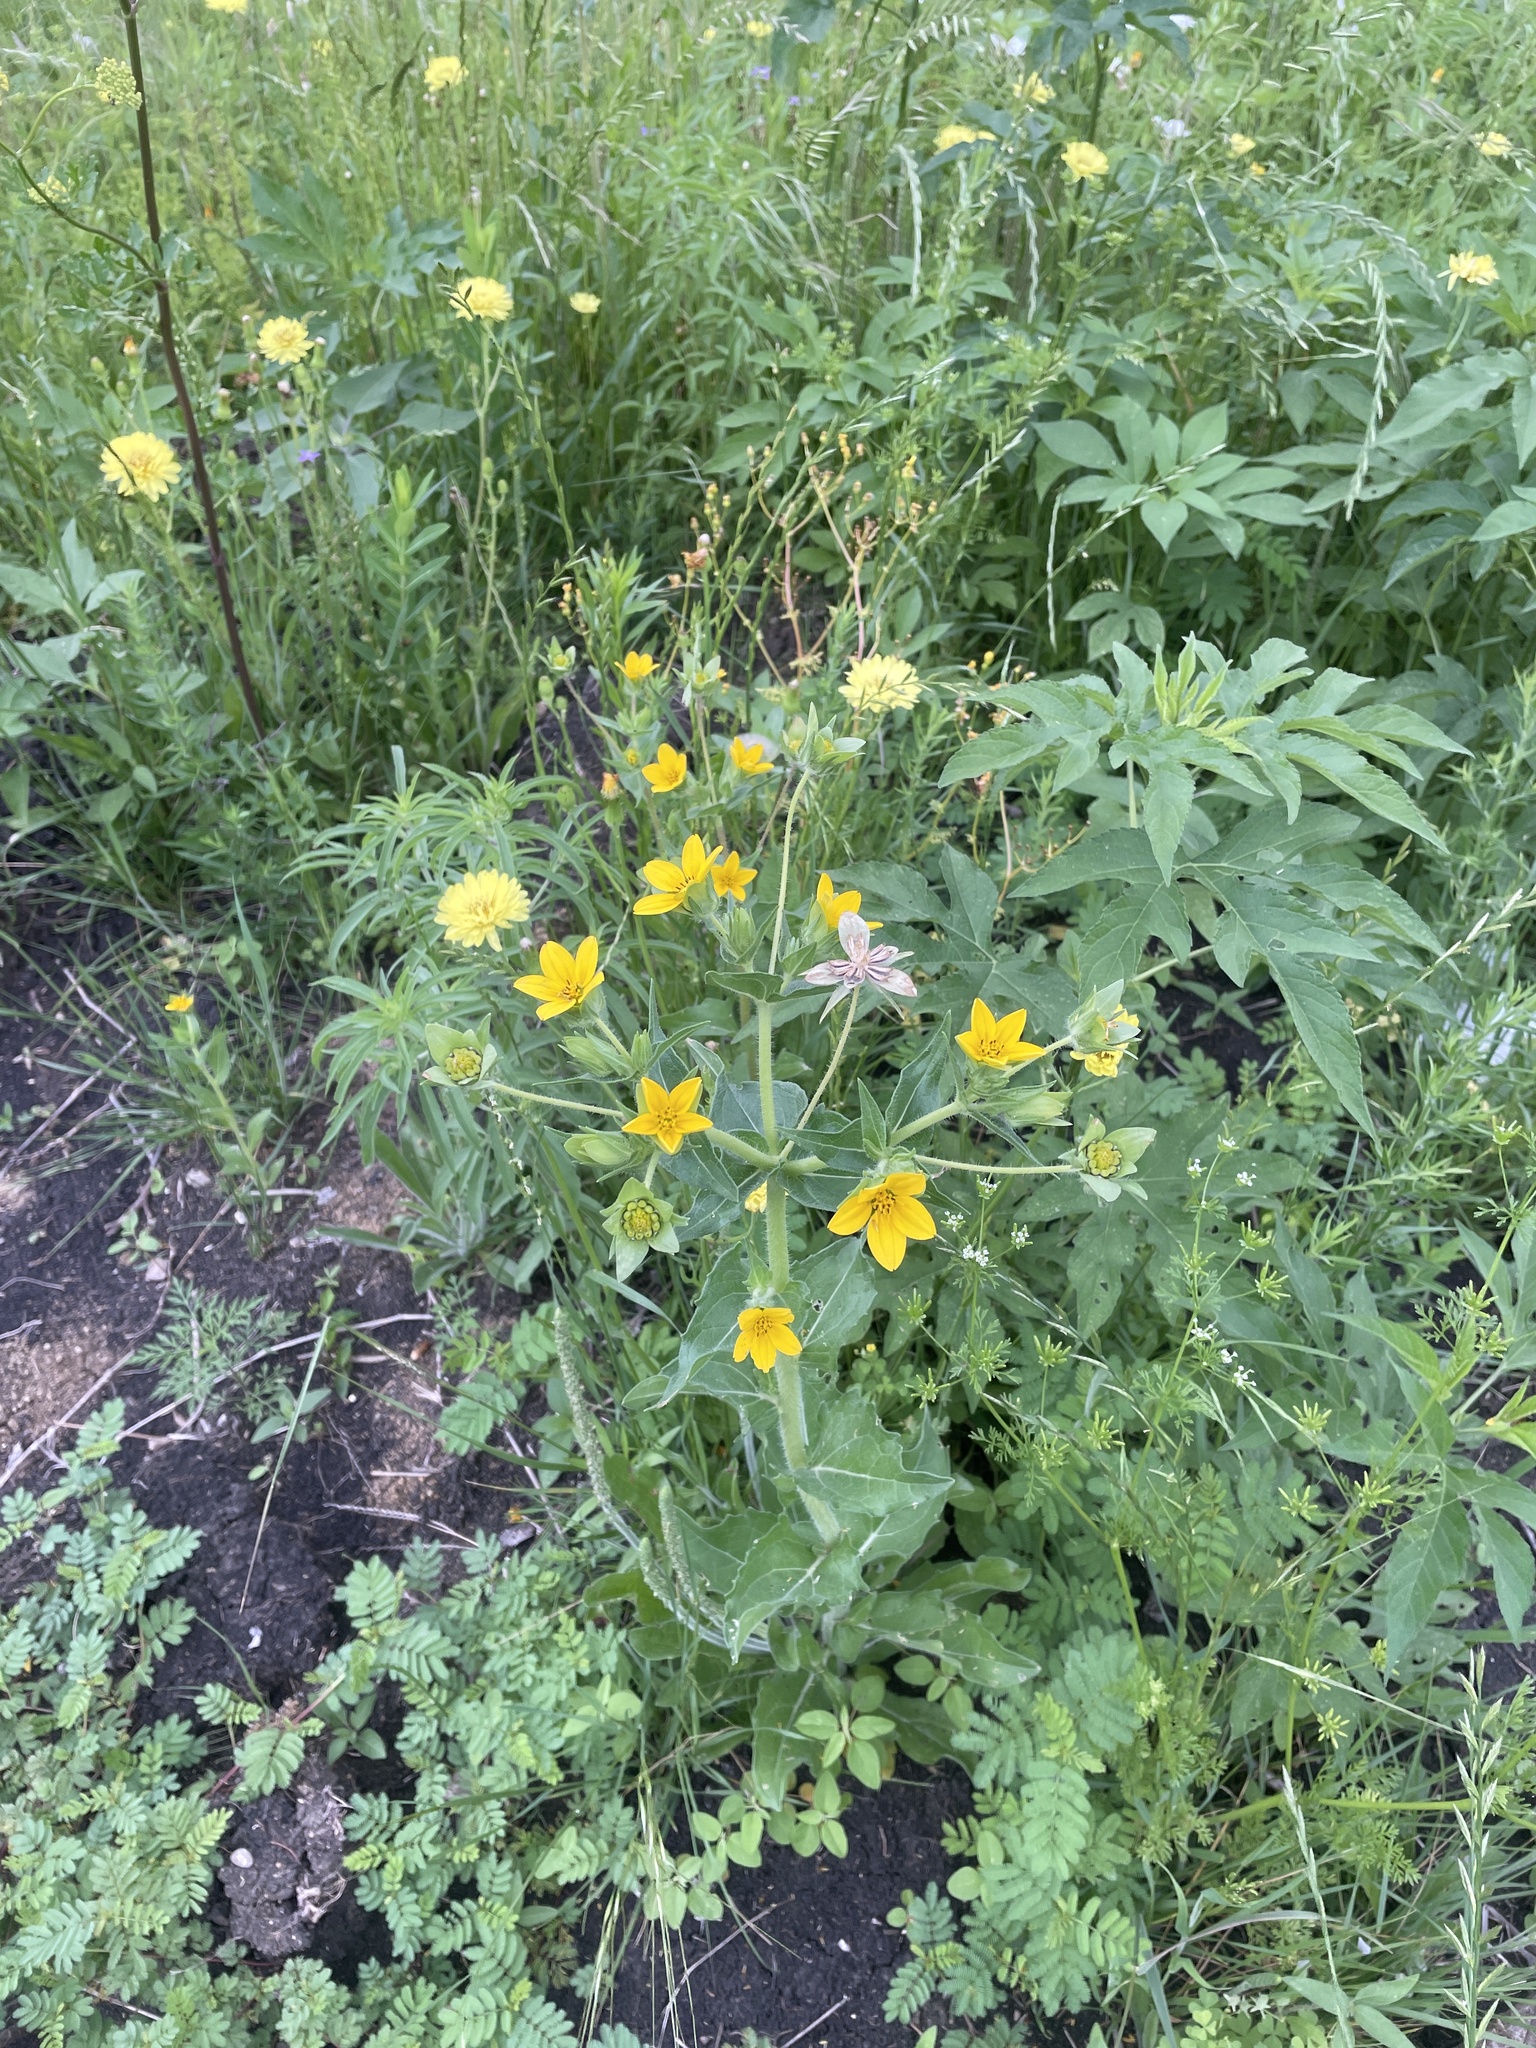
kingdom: Plantae
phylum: Tracheophyta
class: Magnoliopsida
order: Asterales
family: Asteraceae
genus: Lindheimera
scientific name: Lindheimera texana
